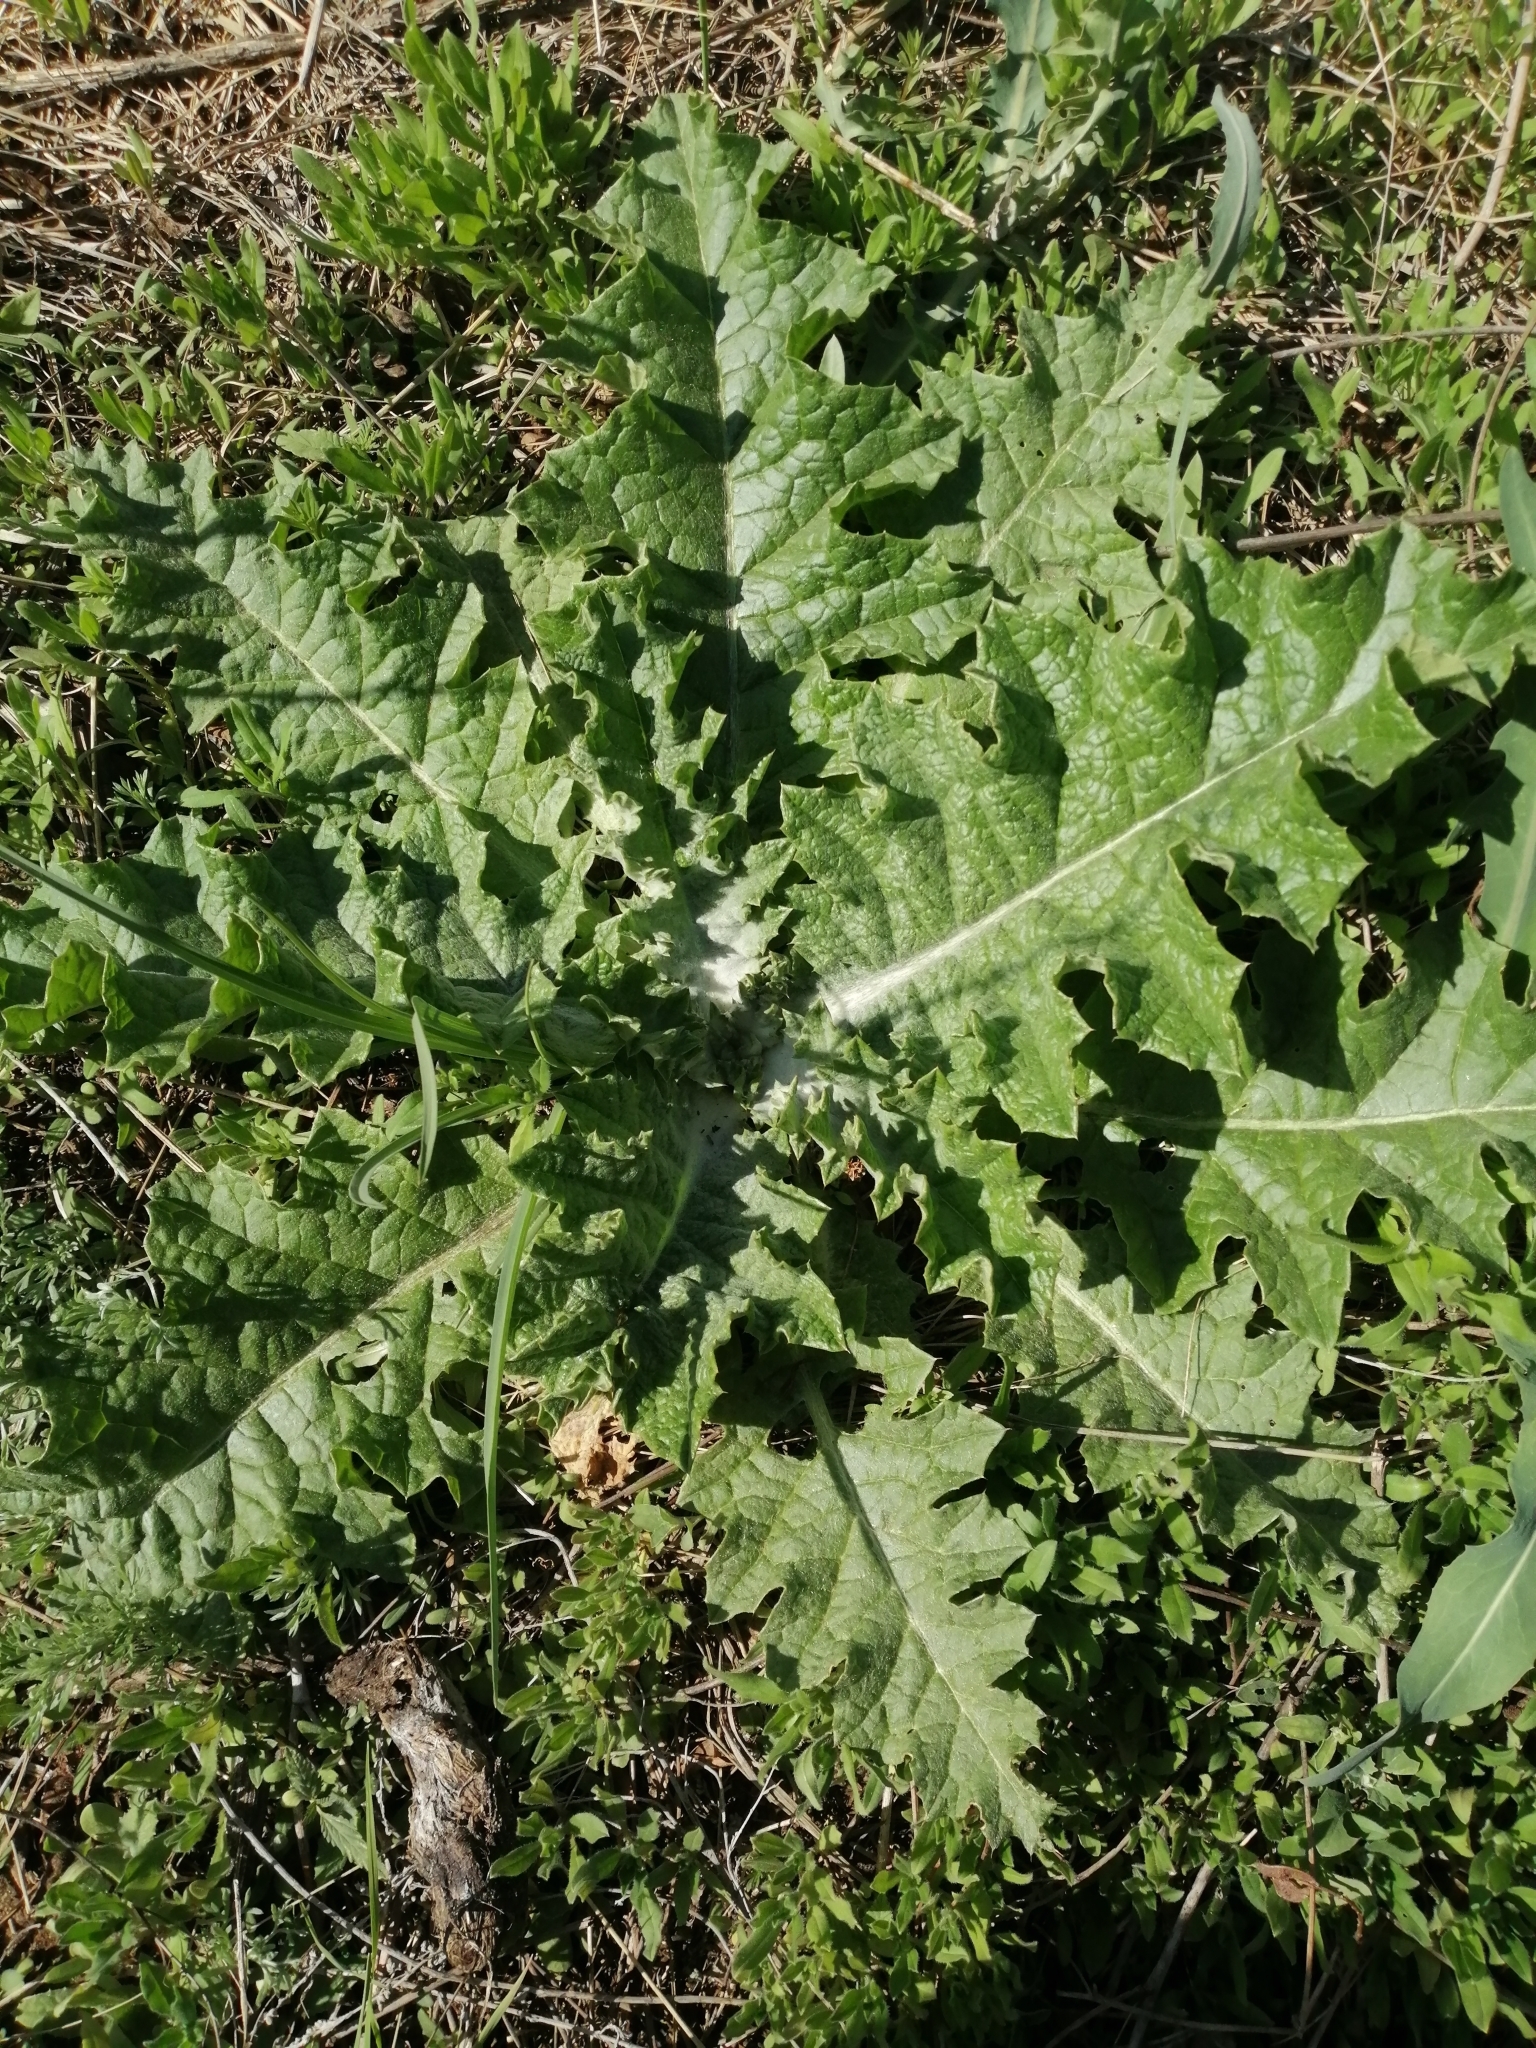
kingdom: Plantae
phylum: Tracheophyta
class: Magnoliopsida
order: Asterales
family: Asteraceae
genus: Onopordum
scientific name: Onopordum acanthium
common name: Scotch thistle
